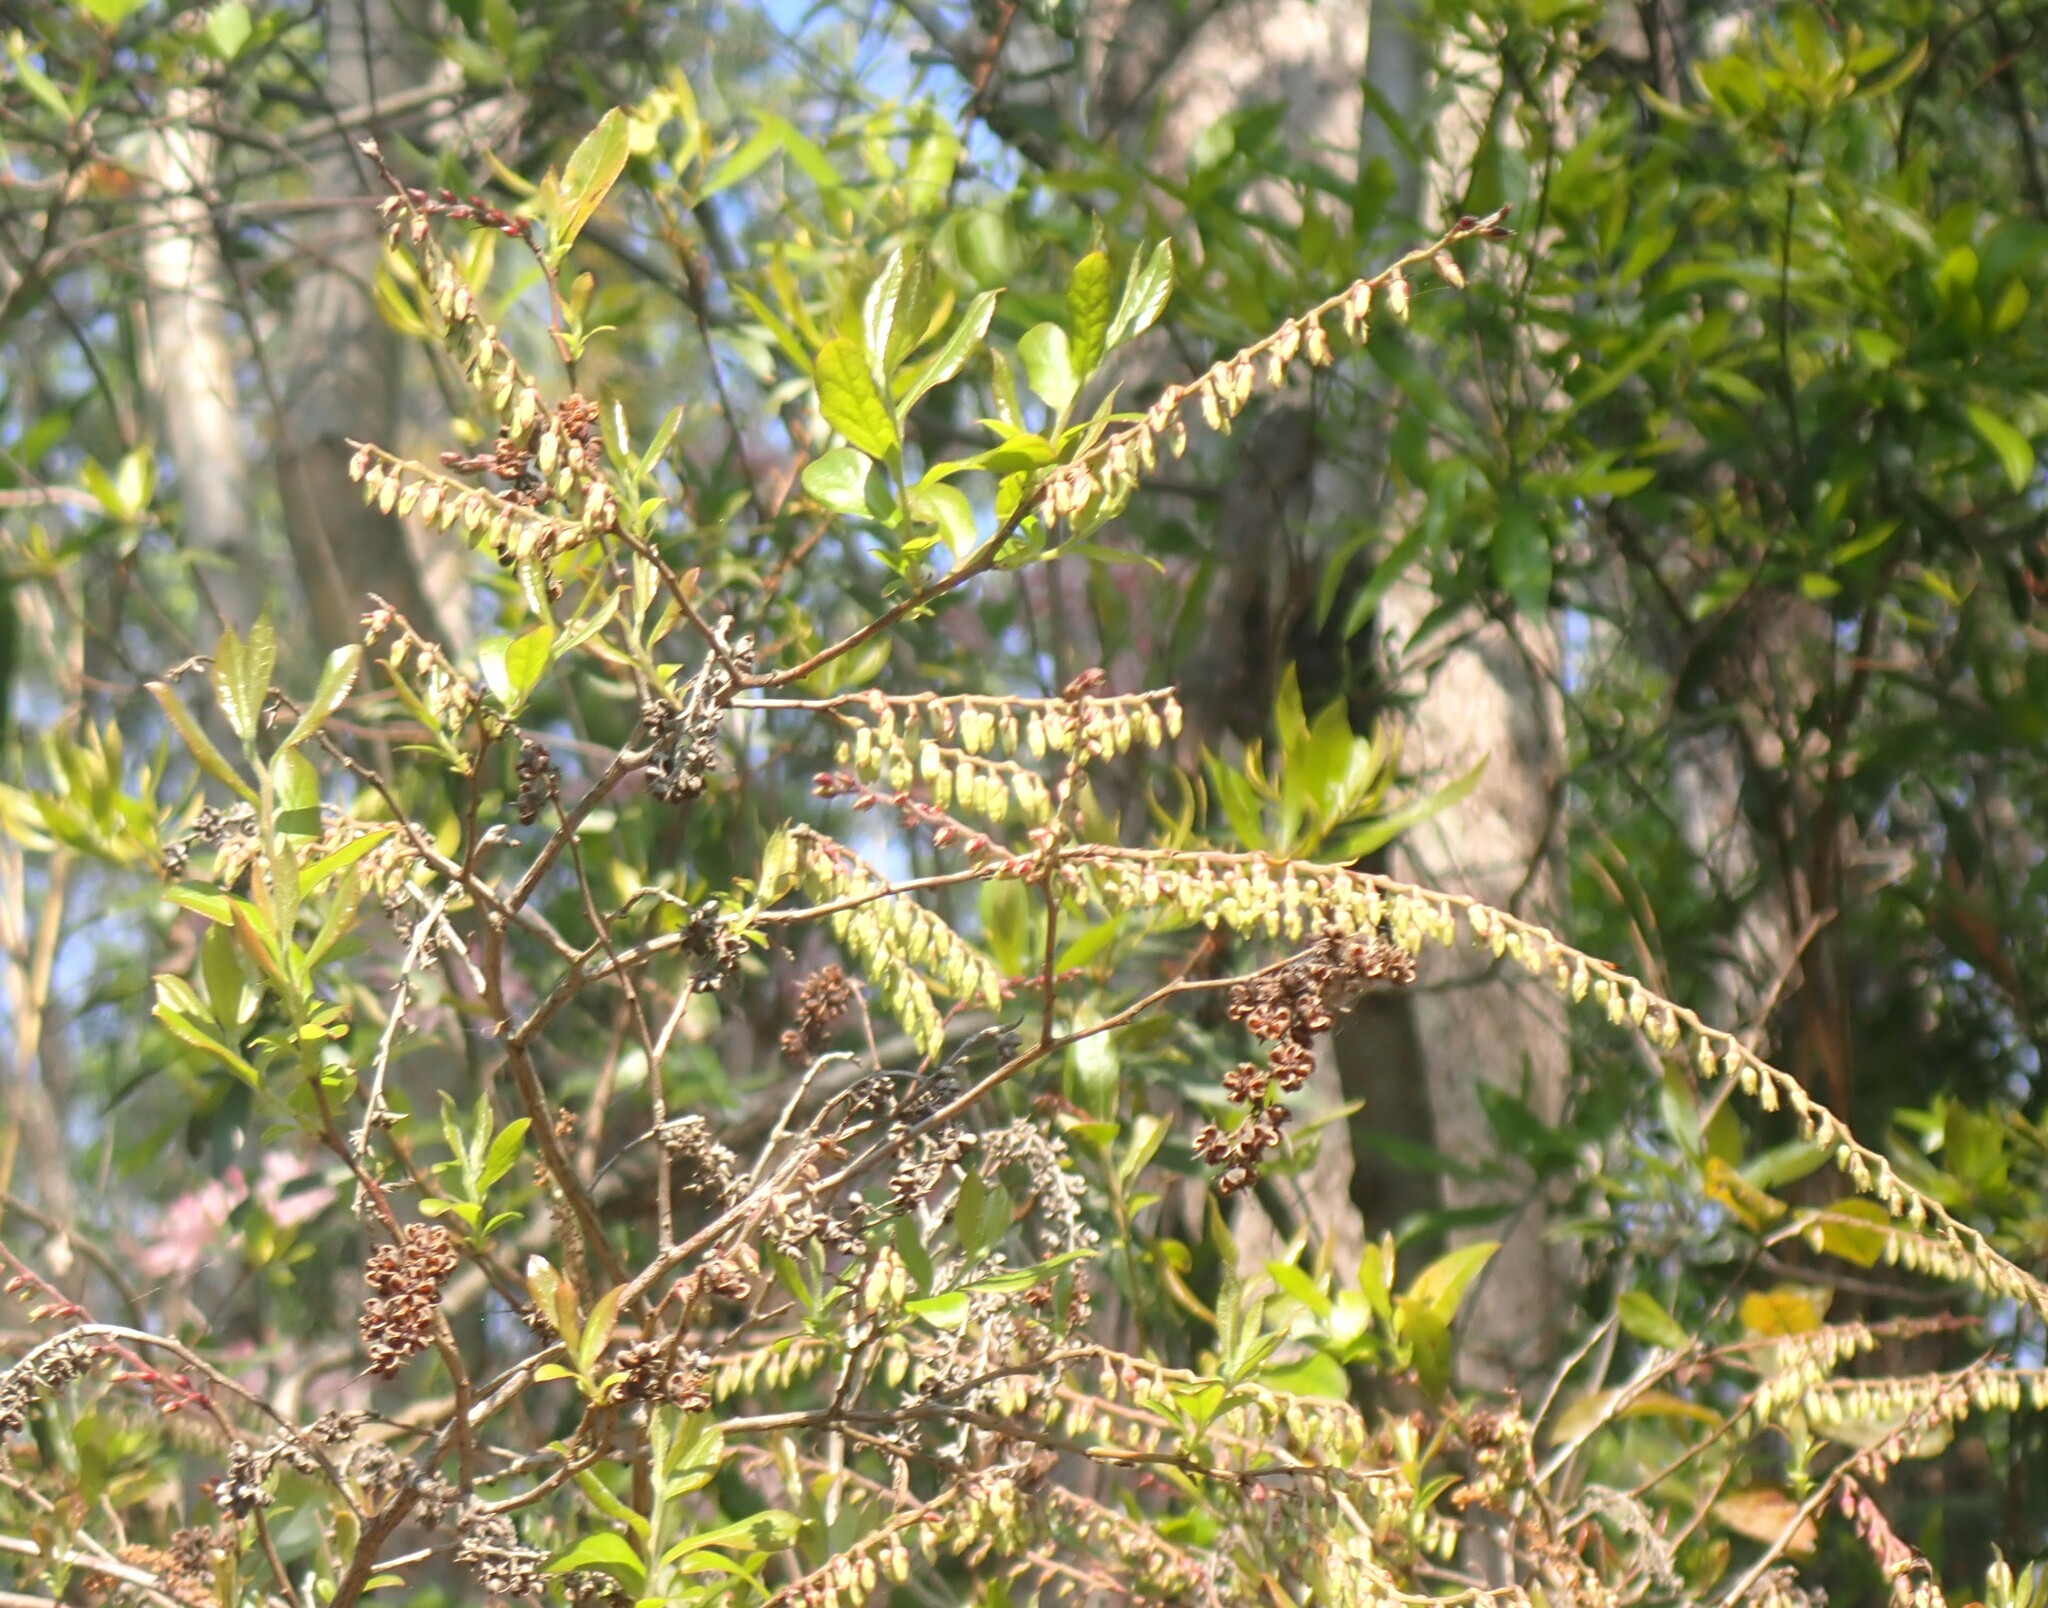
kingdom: Plantae
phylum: Tracheophyta
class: Magnoliopsida
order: Ericales
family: Ericaceae
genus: Eubotrys
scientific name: Eubotrys racemosa
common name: Fetterbush
